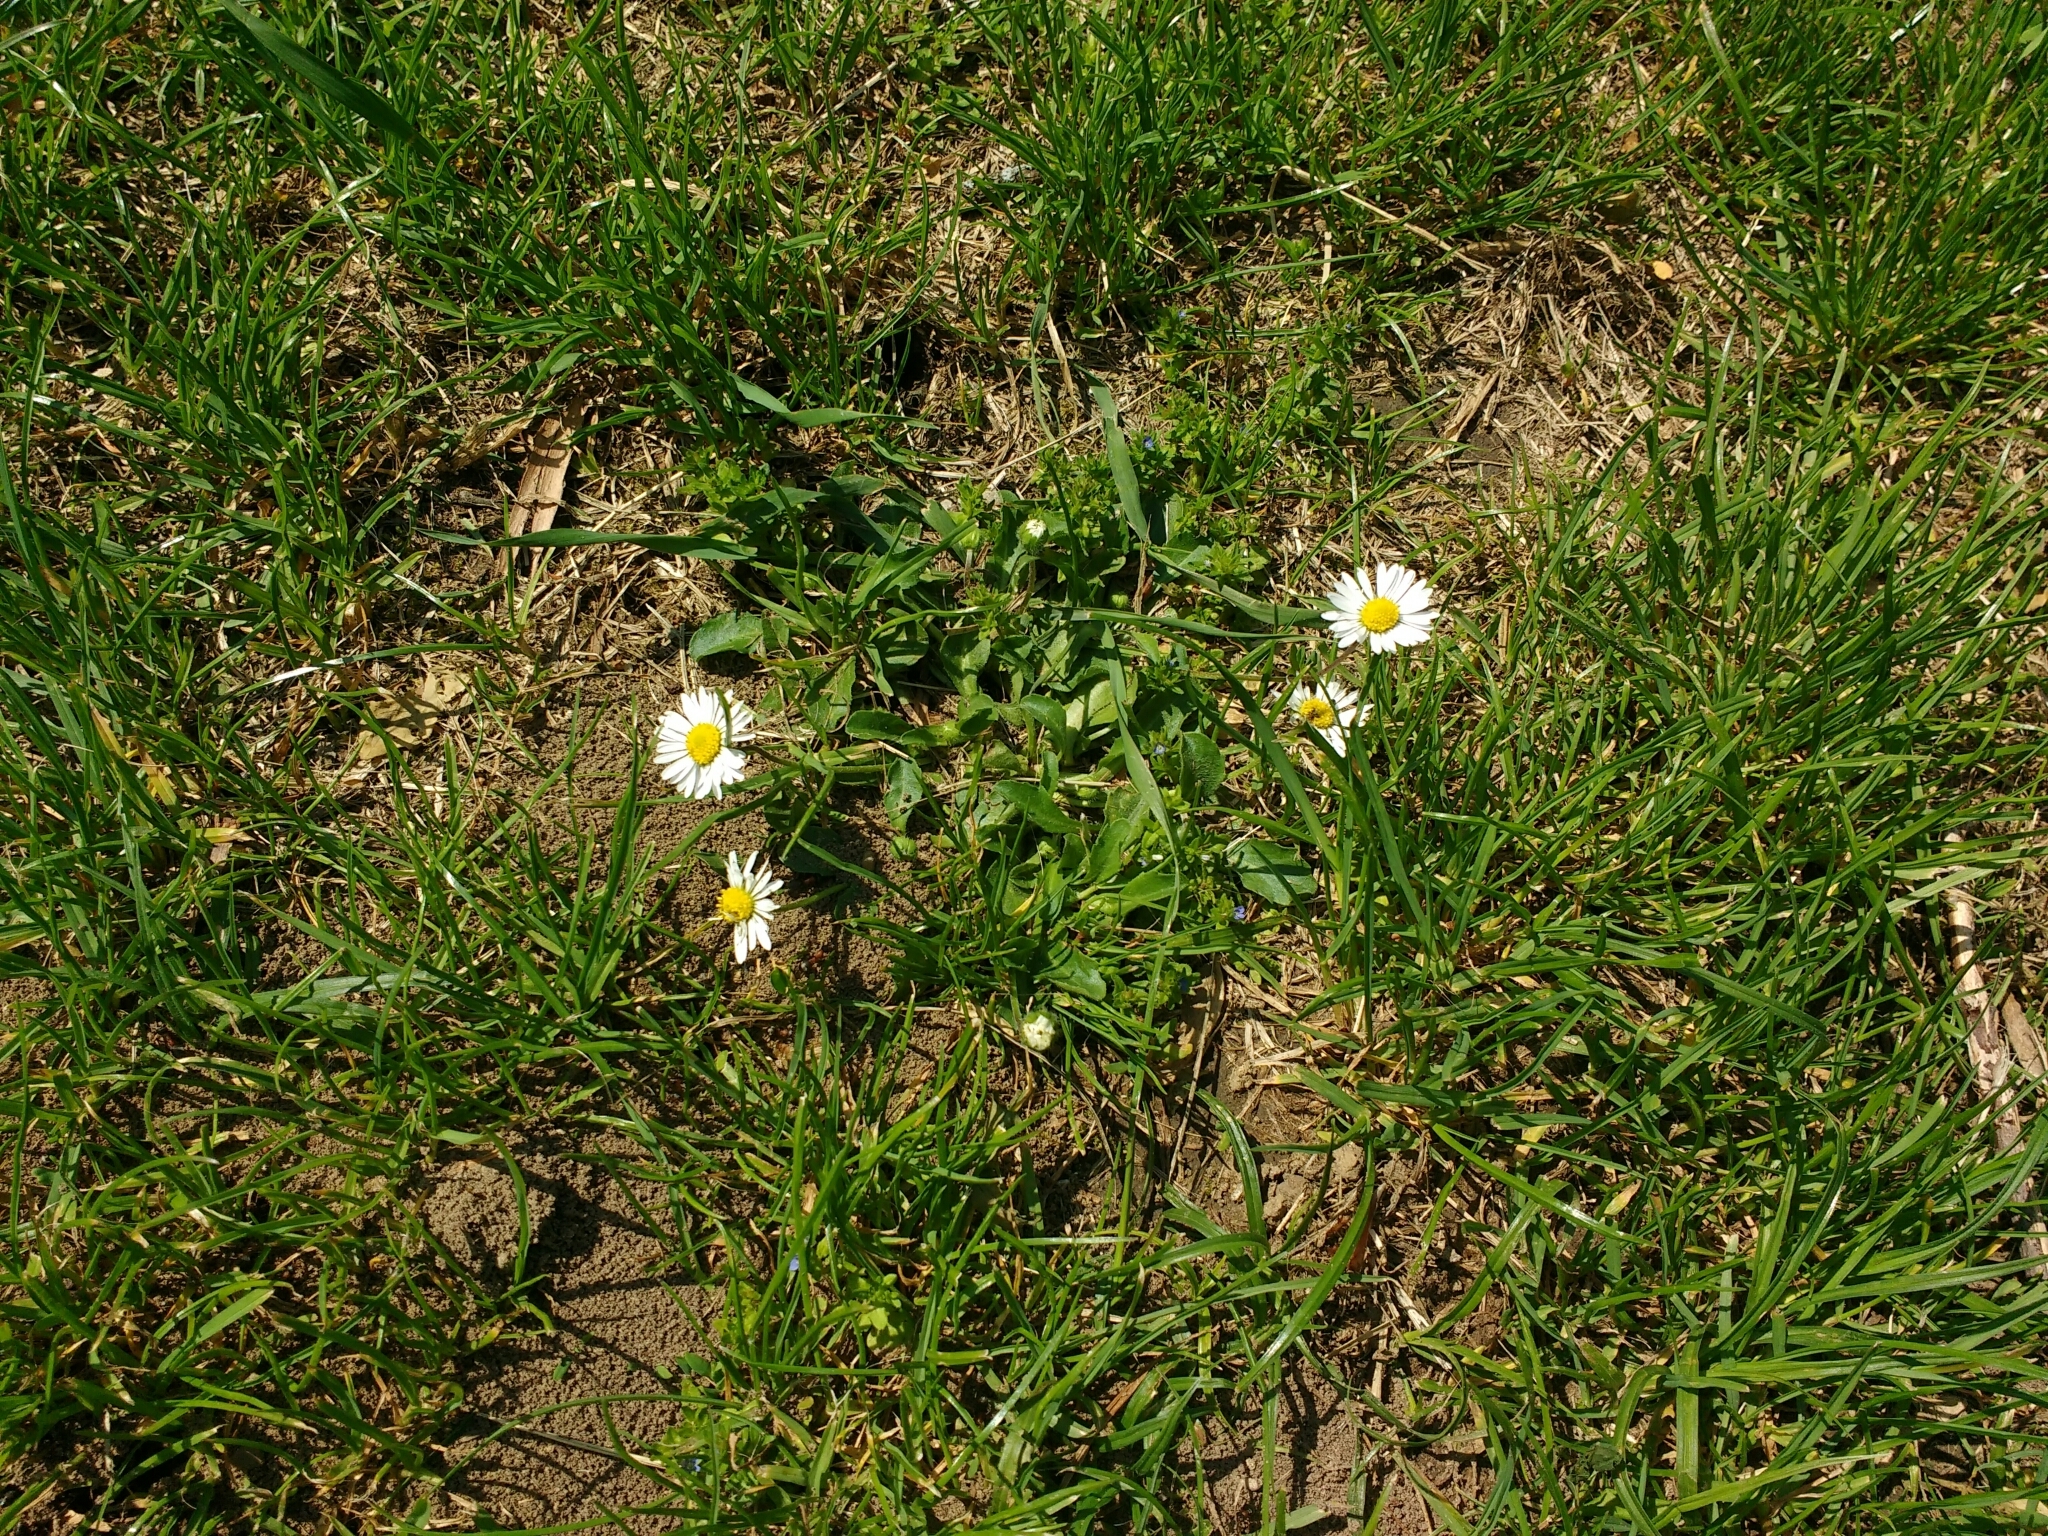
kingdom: Plantae
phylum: Tracheophyta
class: Magnoliopsida
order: Asterales
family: Asteraceae
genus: Bellis
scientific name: Bellis perennis
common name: Lawndaisy
